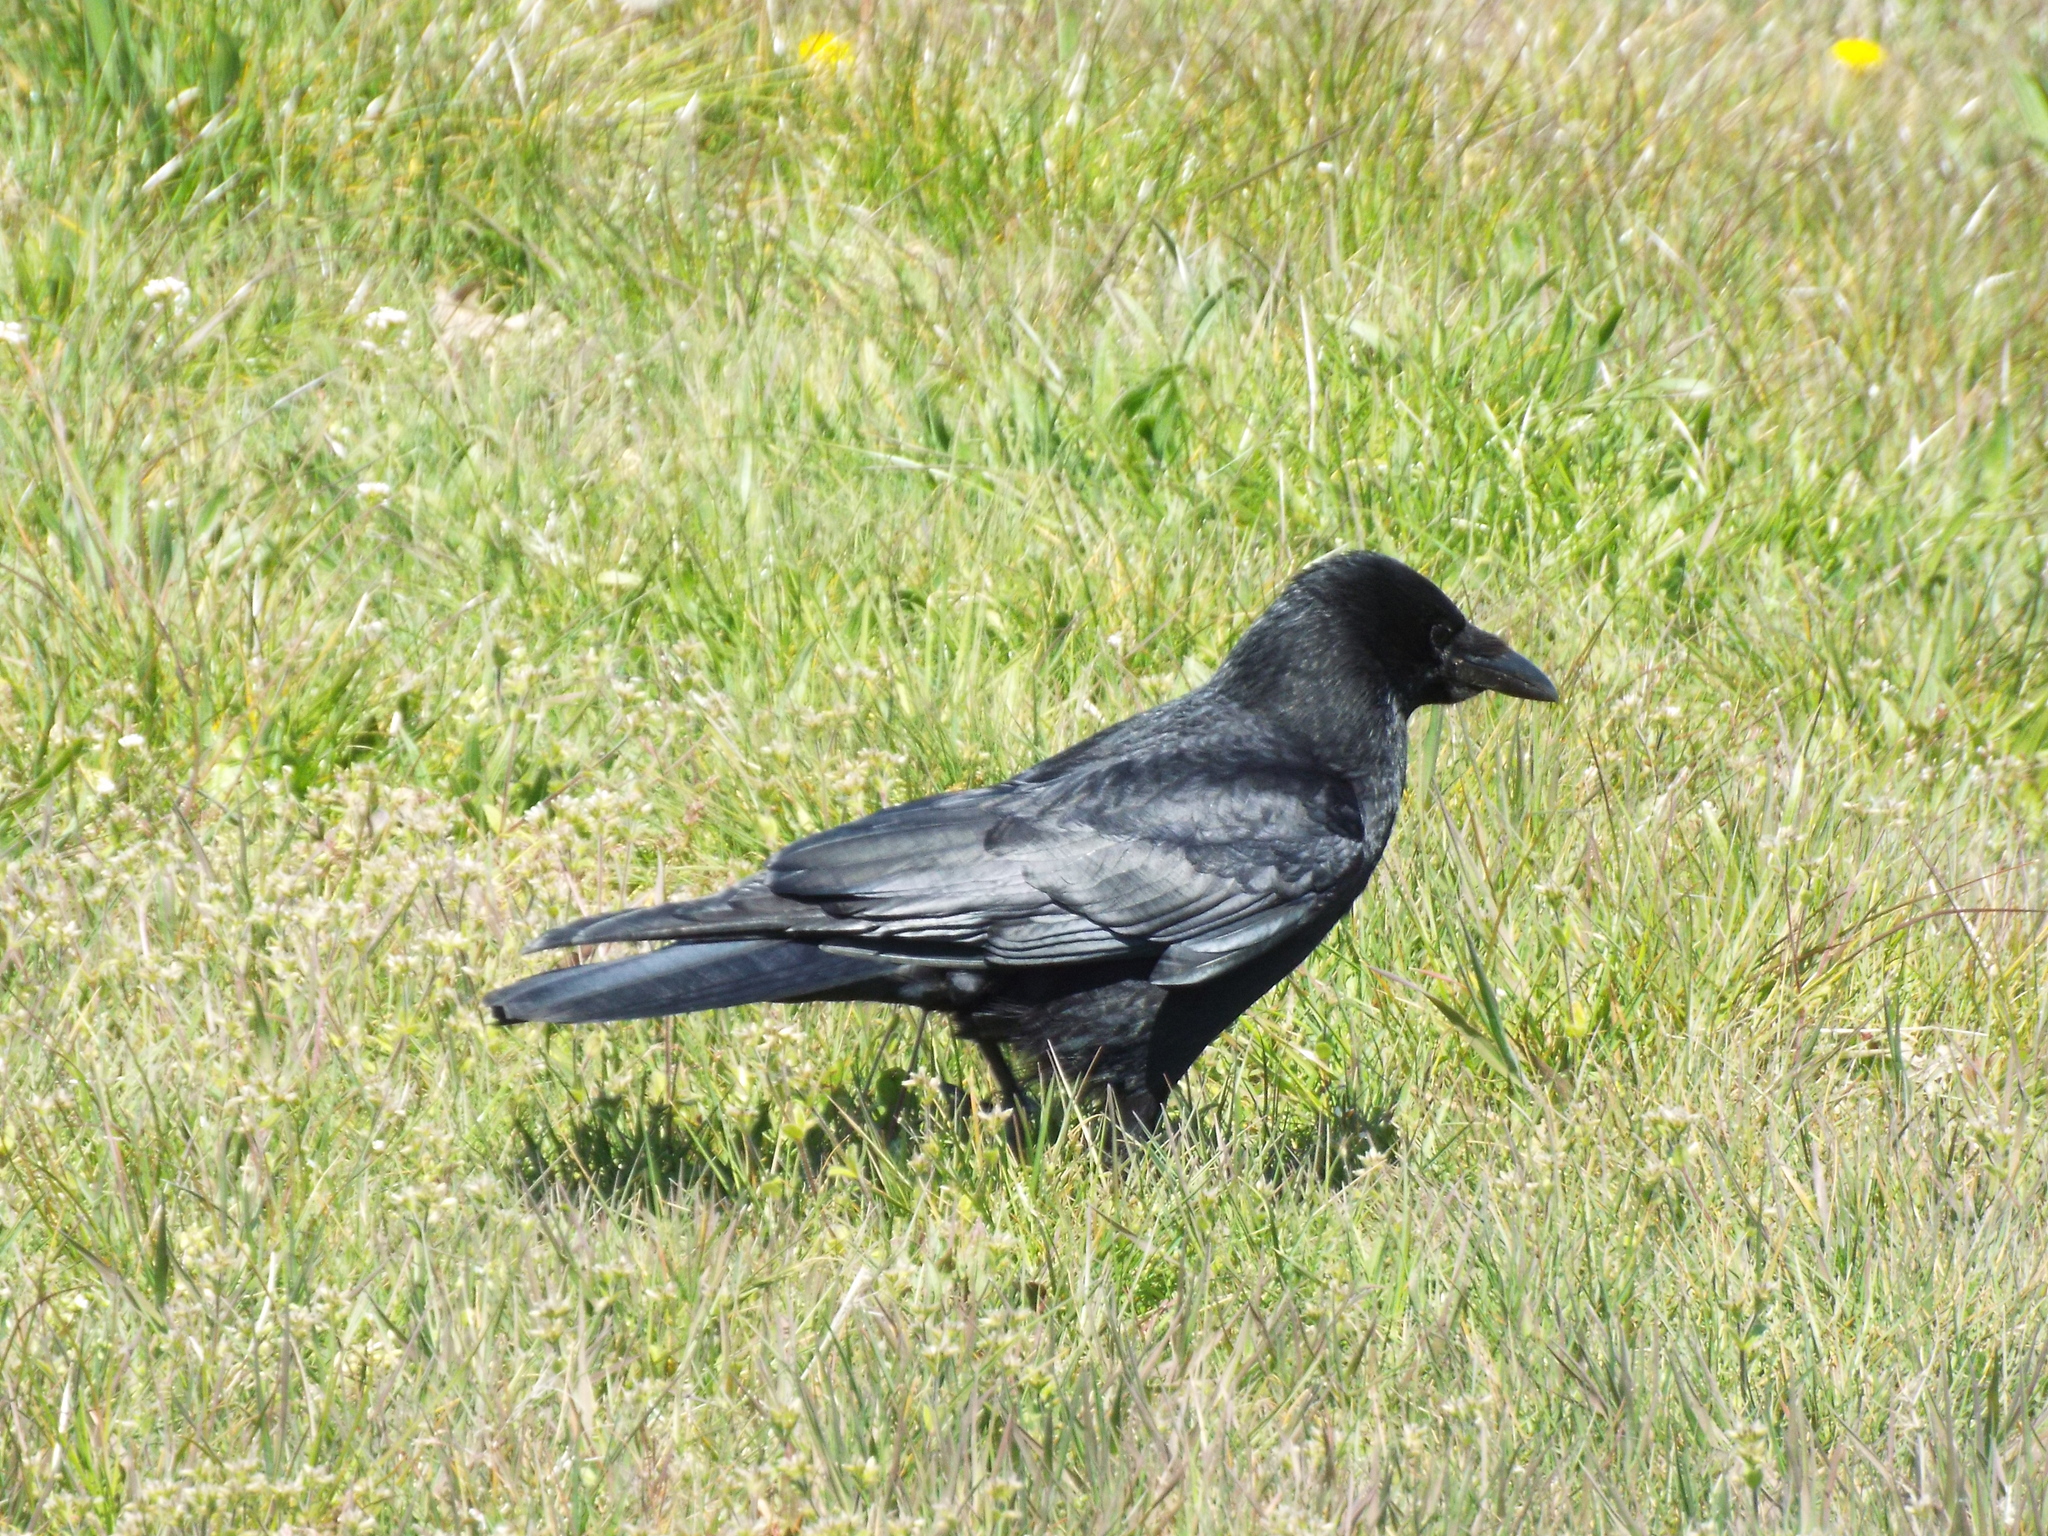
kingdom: Animalia
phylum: Chordata
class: Aves
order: Passeriformes
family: Corvidae
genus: Corvus
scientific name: Corvus corone
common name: Carrion crow
